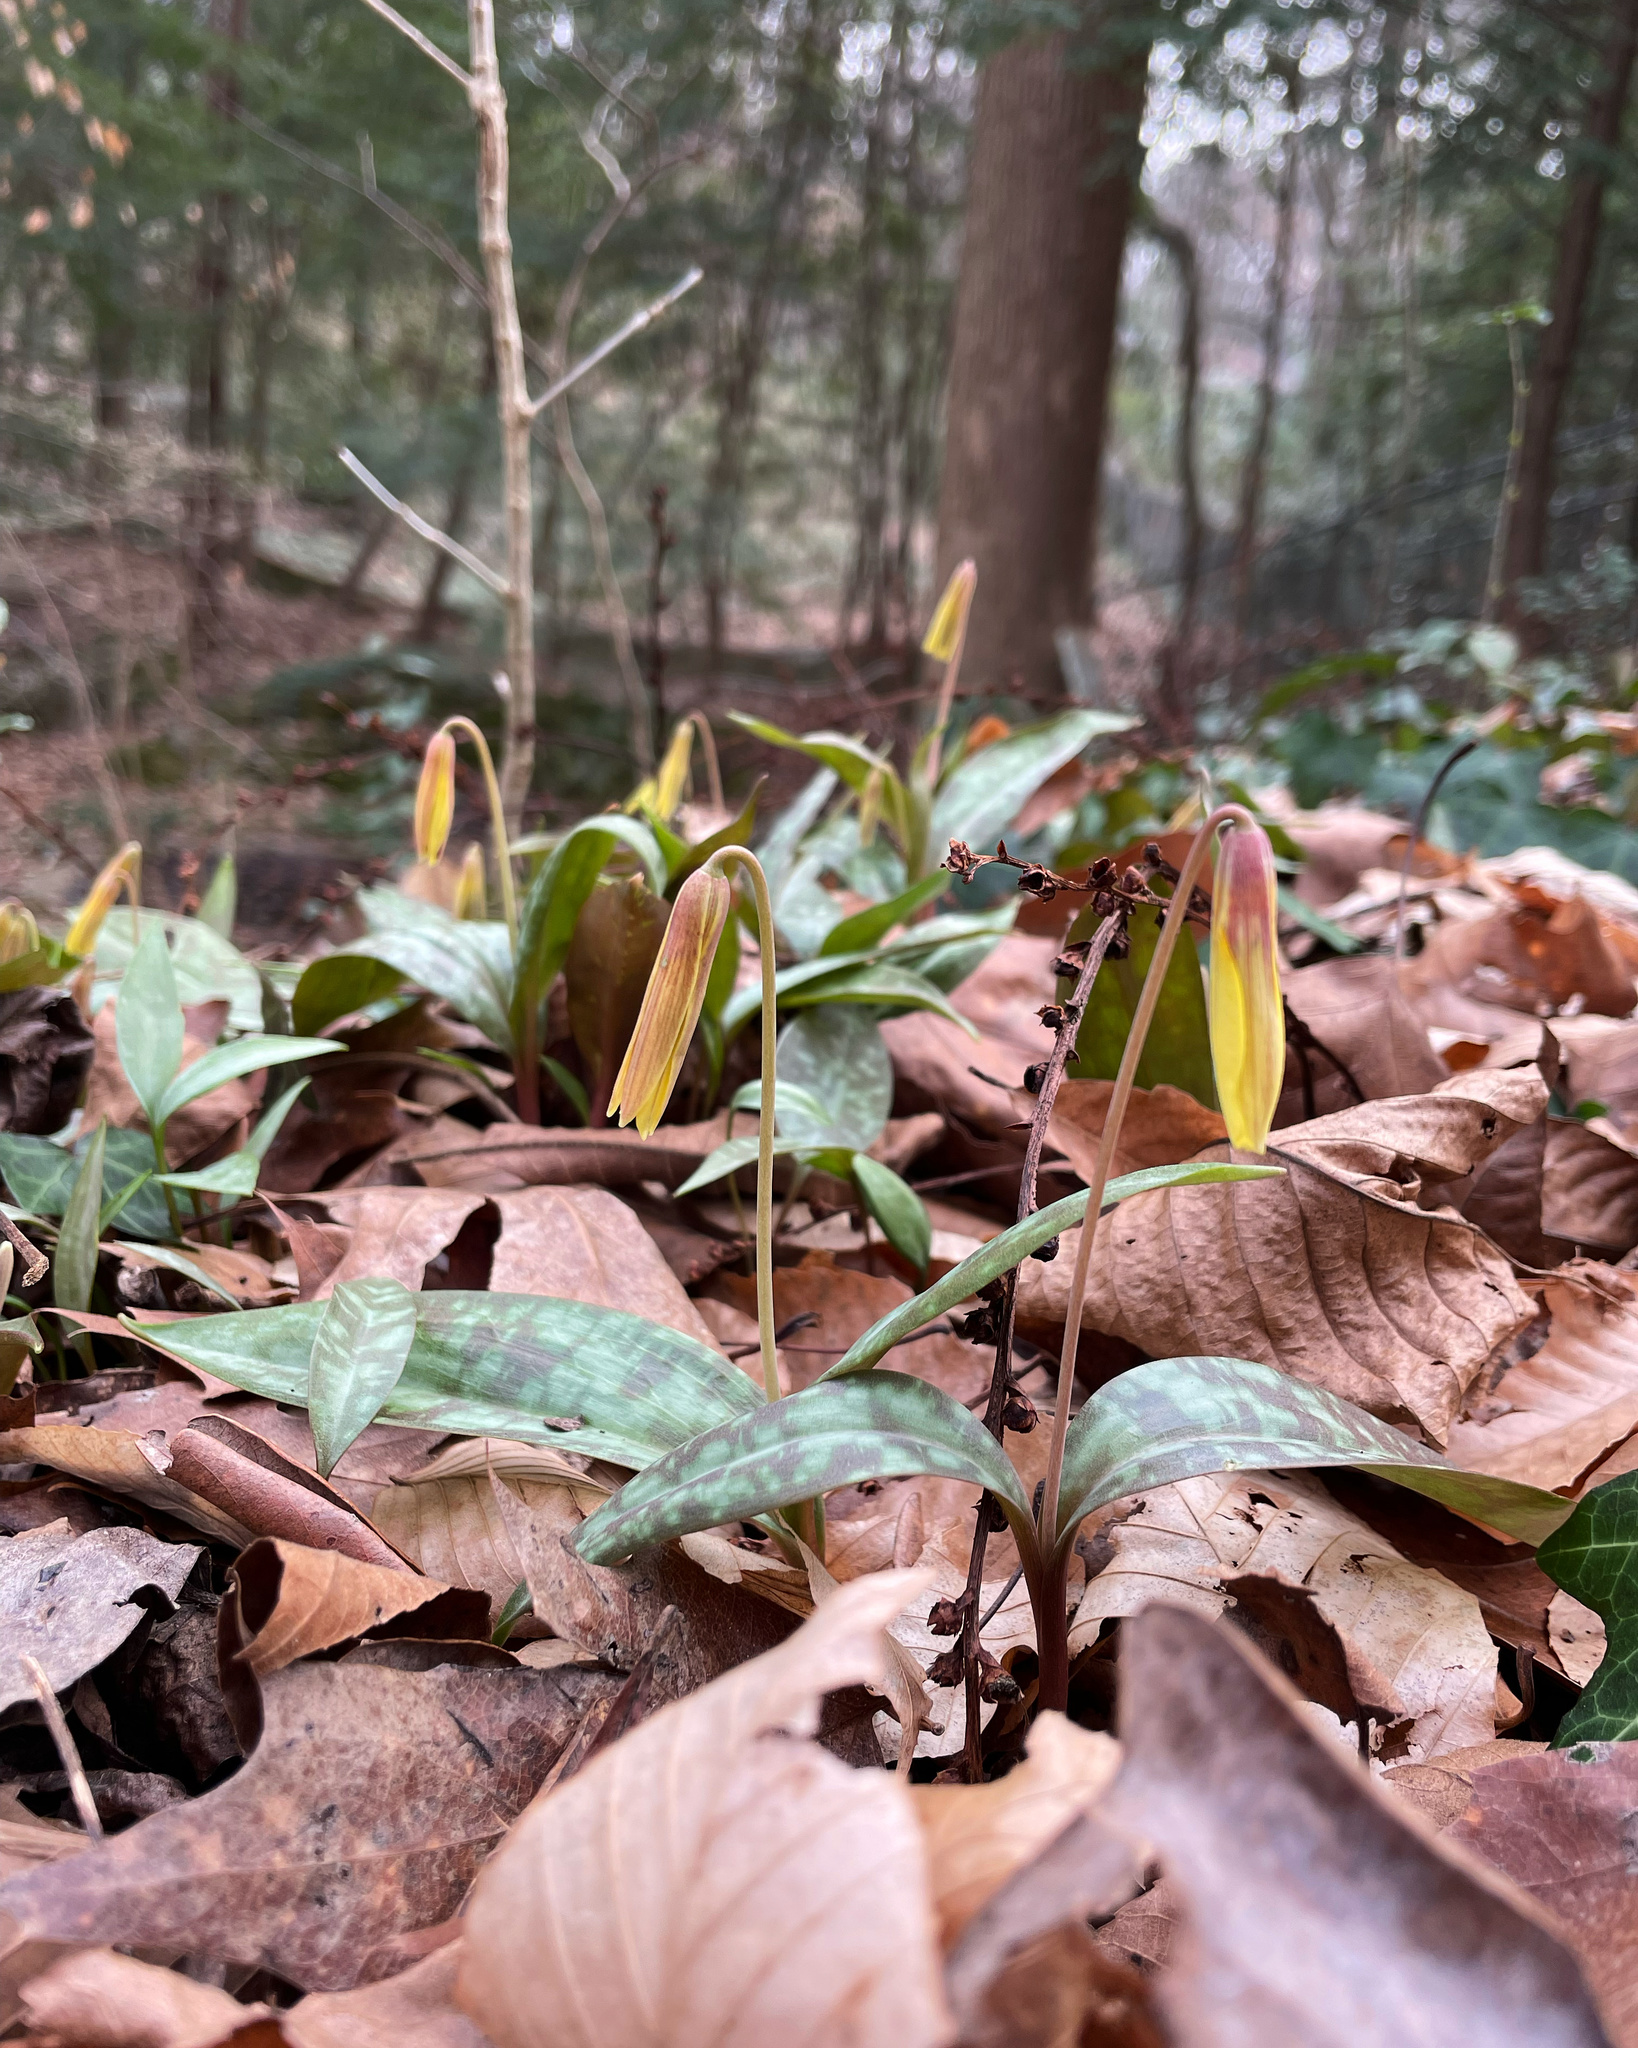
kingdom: Plantae
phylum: Tracheophyta
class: Liliopsida
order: Liliales
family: Liliaceae
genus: Erythronium
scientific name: Erythronium umbilicatum
